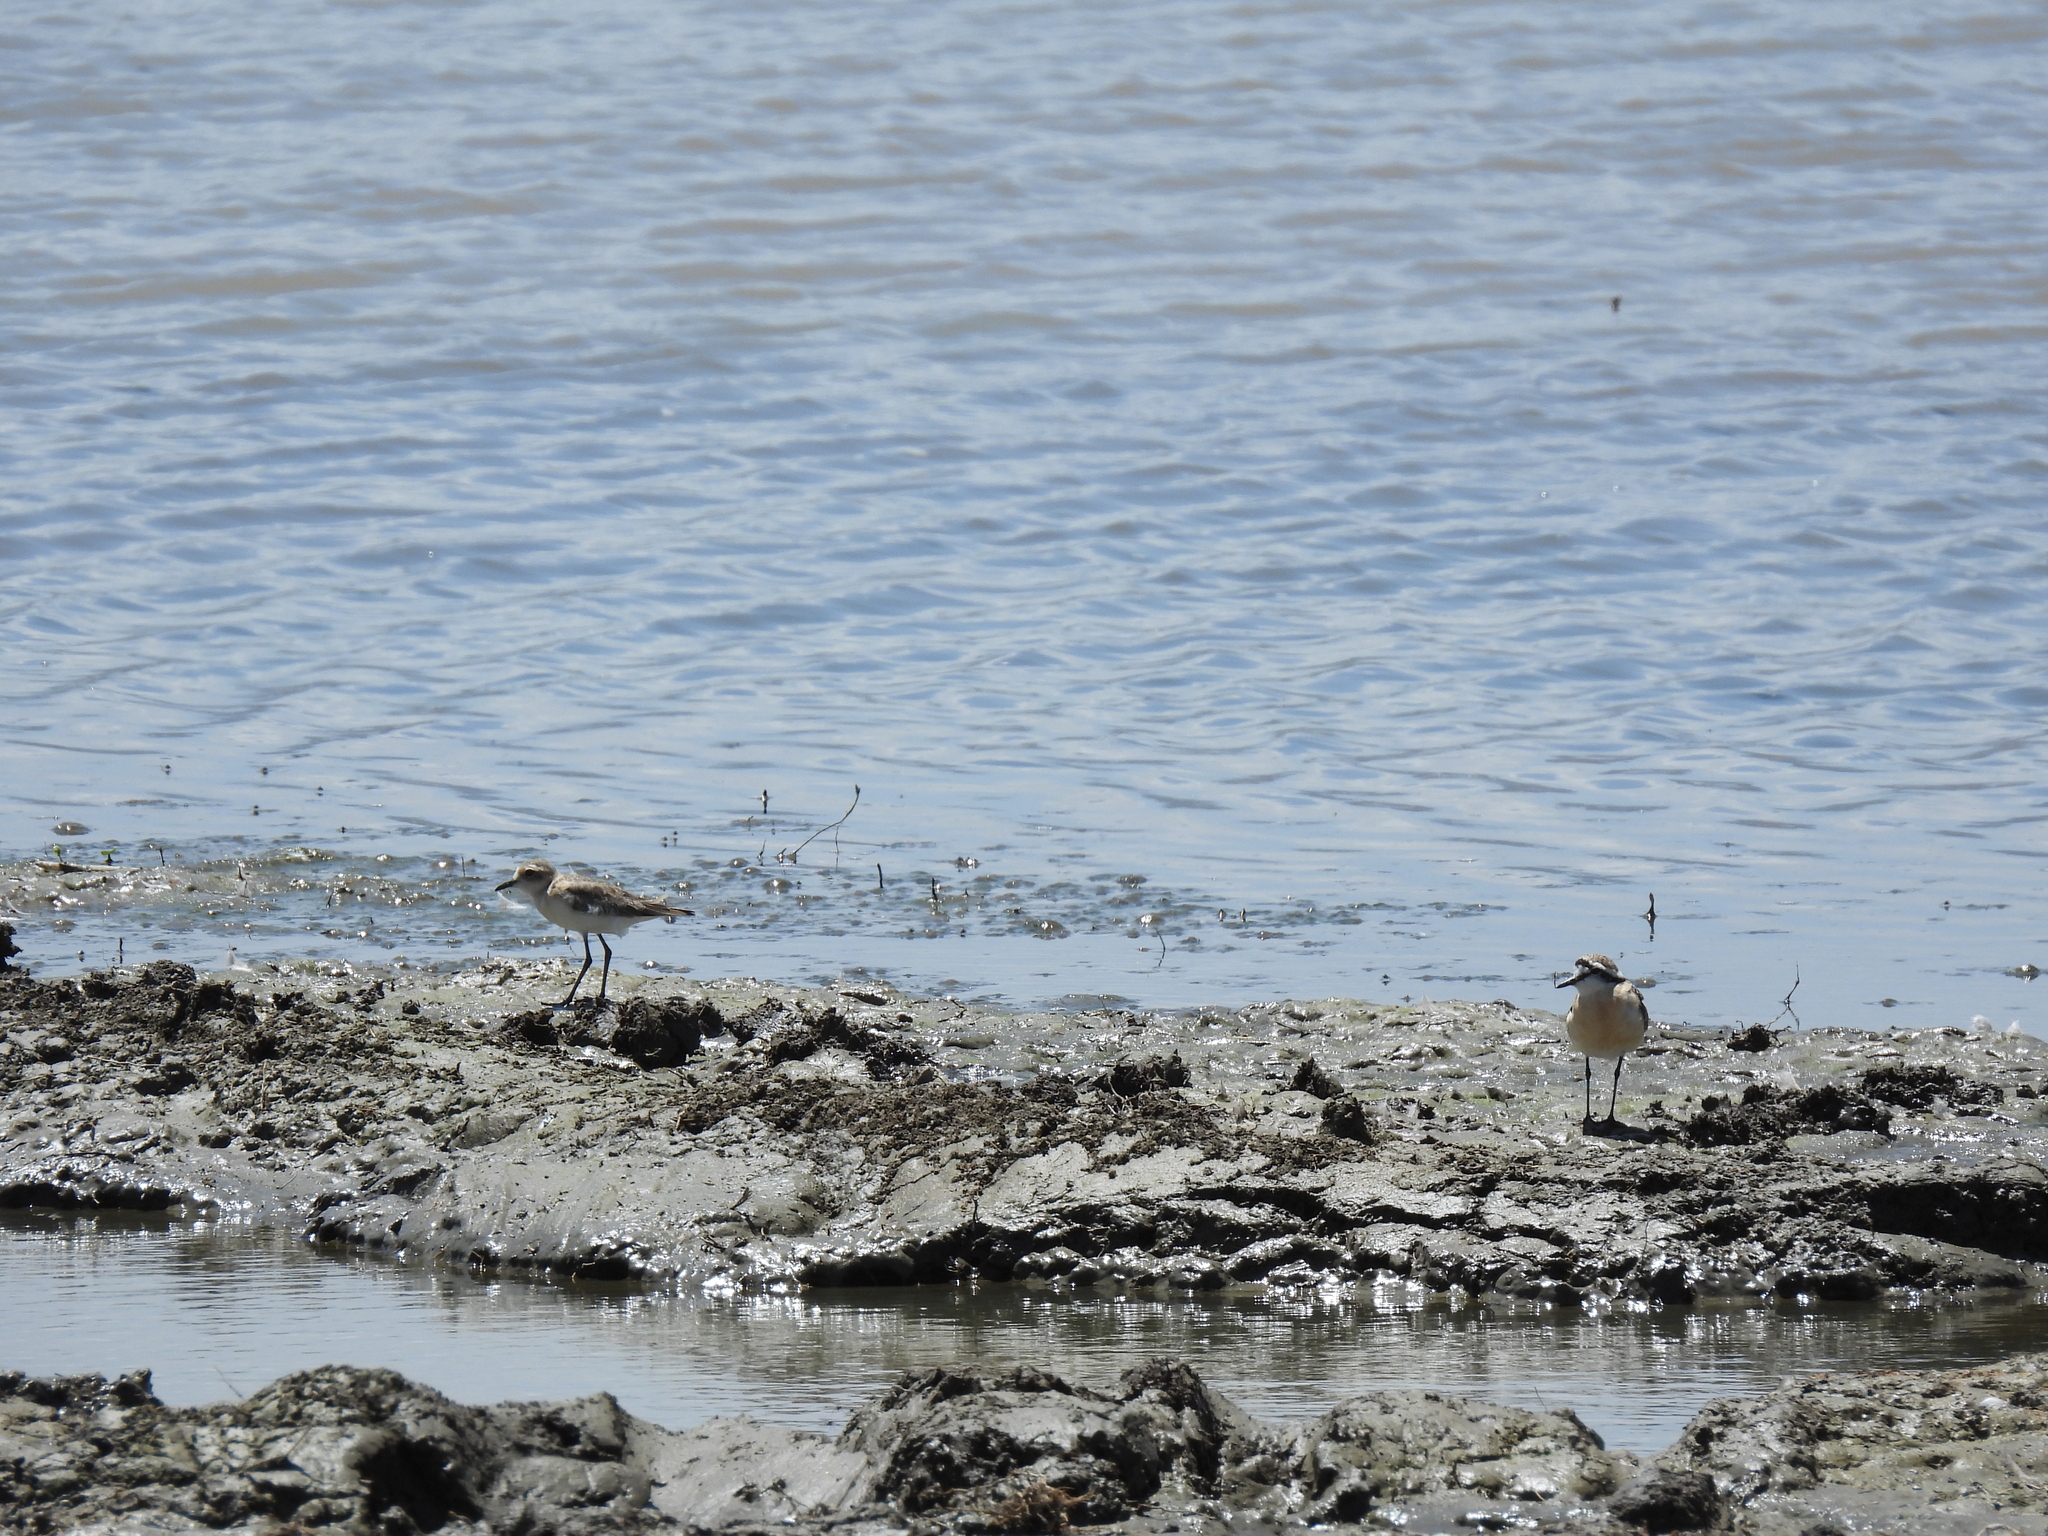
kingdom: Animalia
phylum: Chordata
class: Aves
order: Charadriiformes
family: Charadriidae
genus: Anarhynchus
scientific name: Anarhynchus
